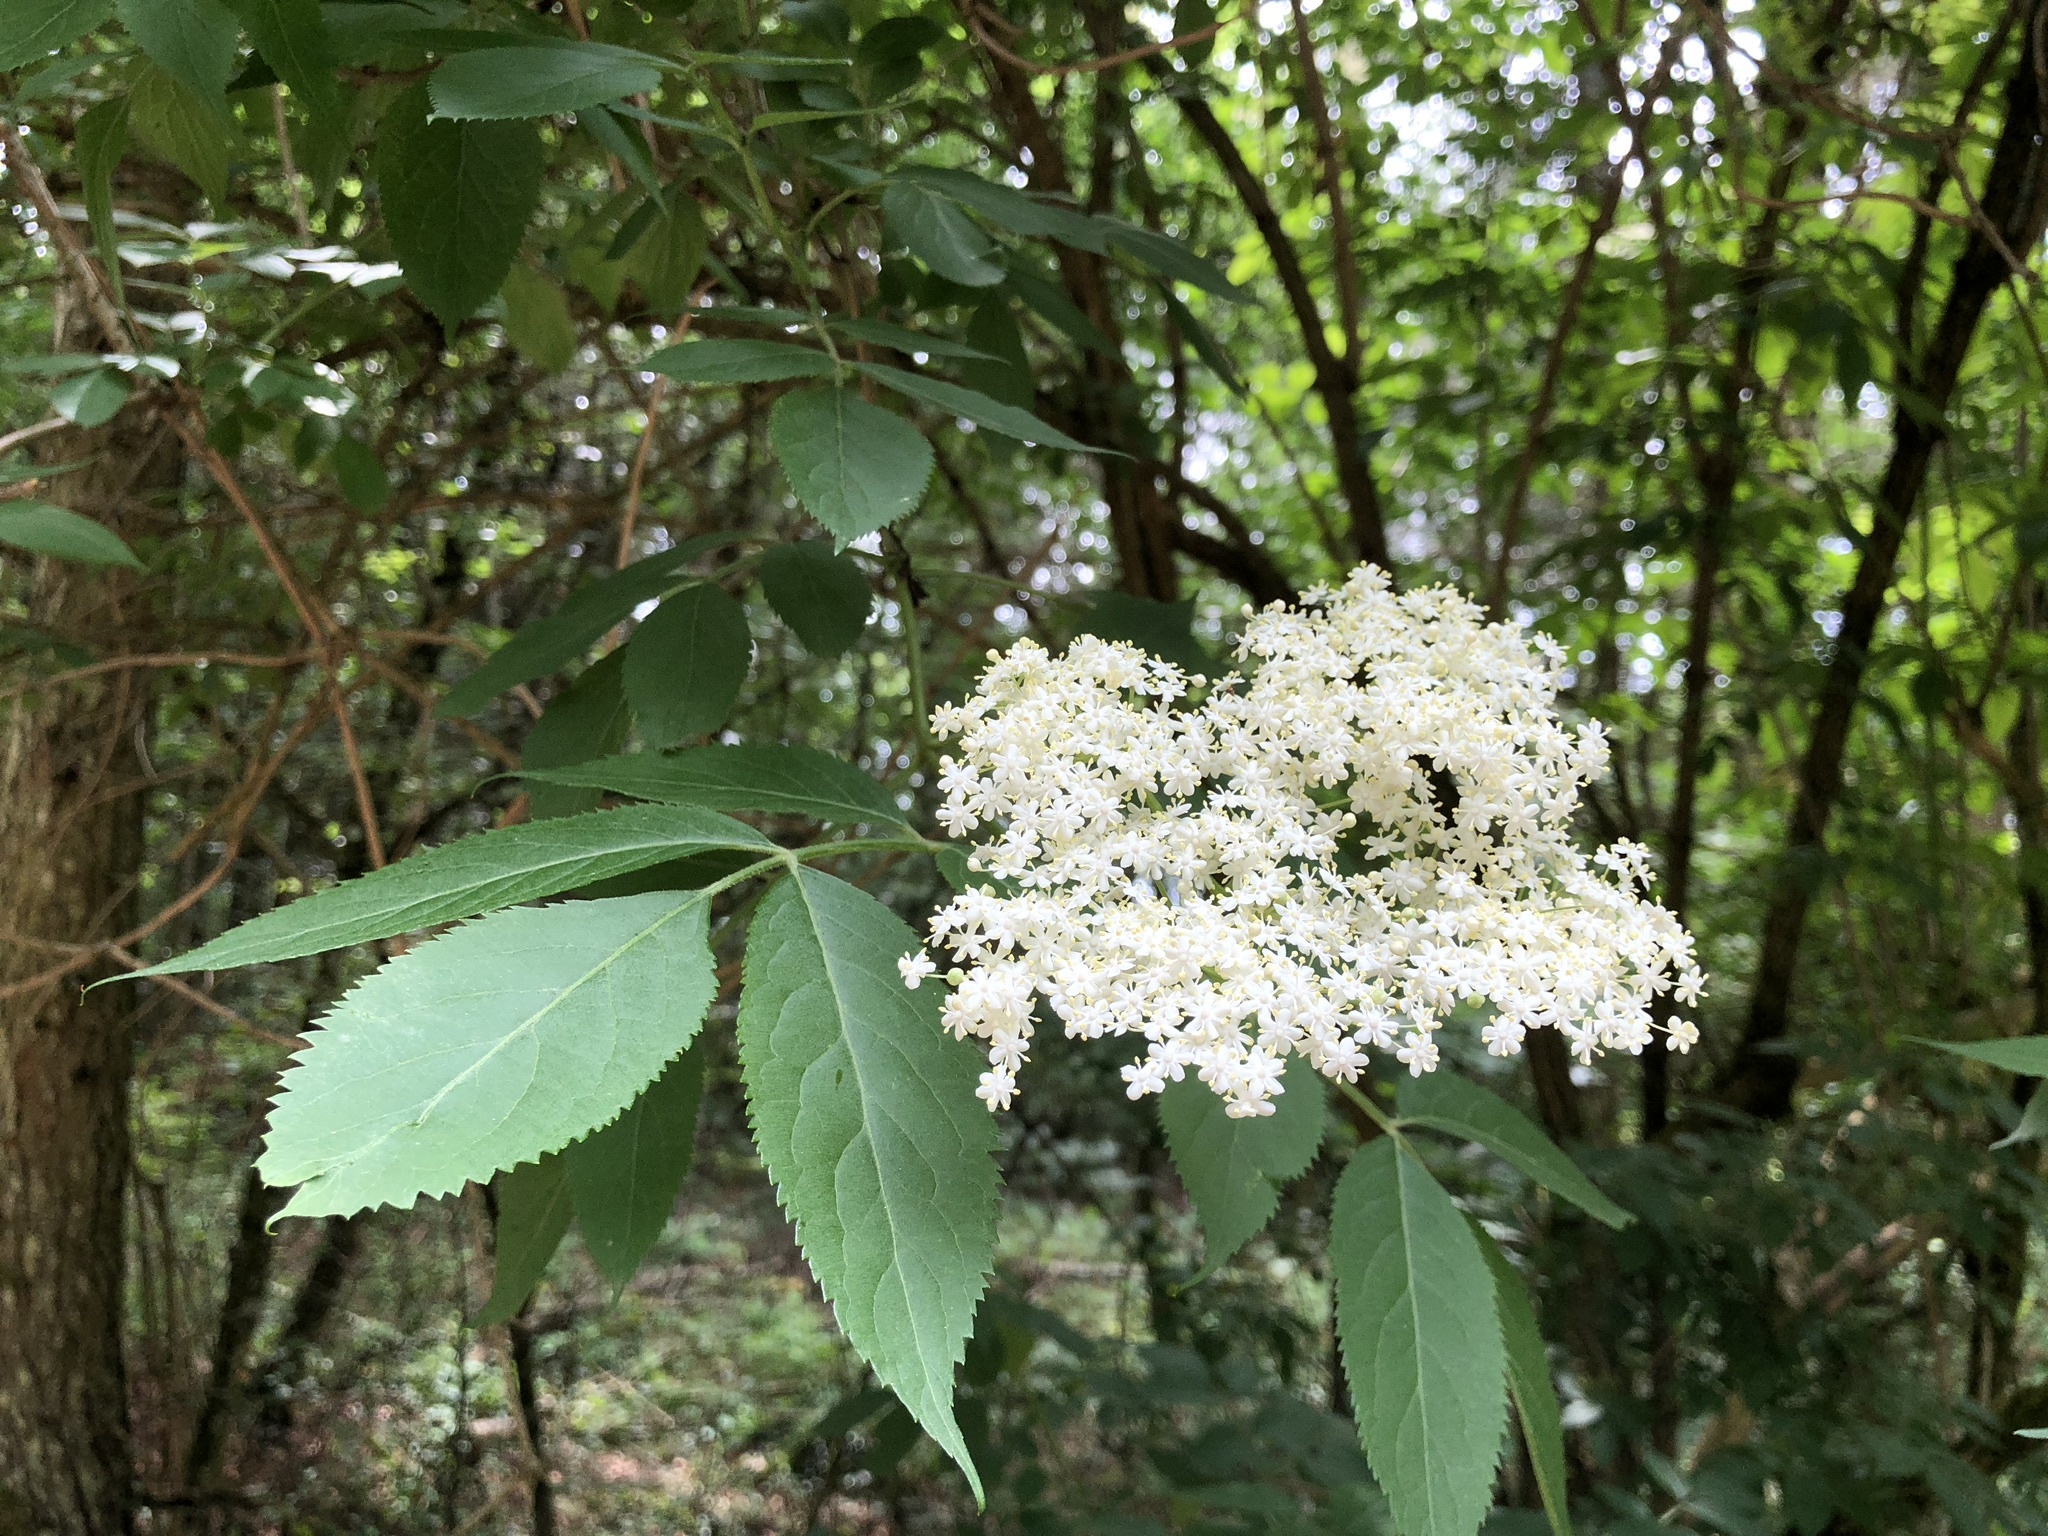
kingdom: Plantae
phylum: Tracheophyta
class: Magnoliopsida
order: Dipsacales
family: Viburnaceae
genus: Sambucus
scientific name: Sambucus nigra
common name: Elder
